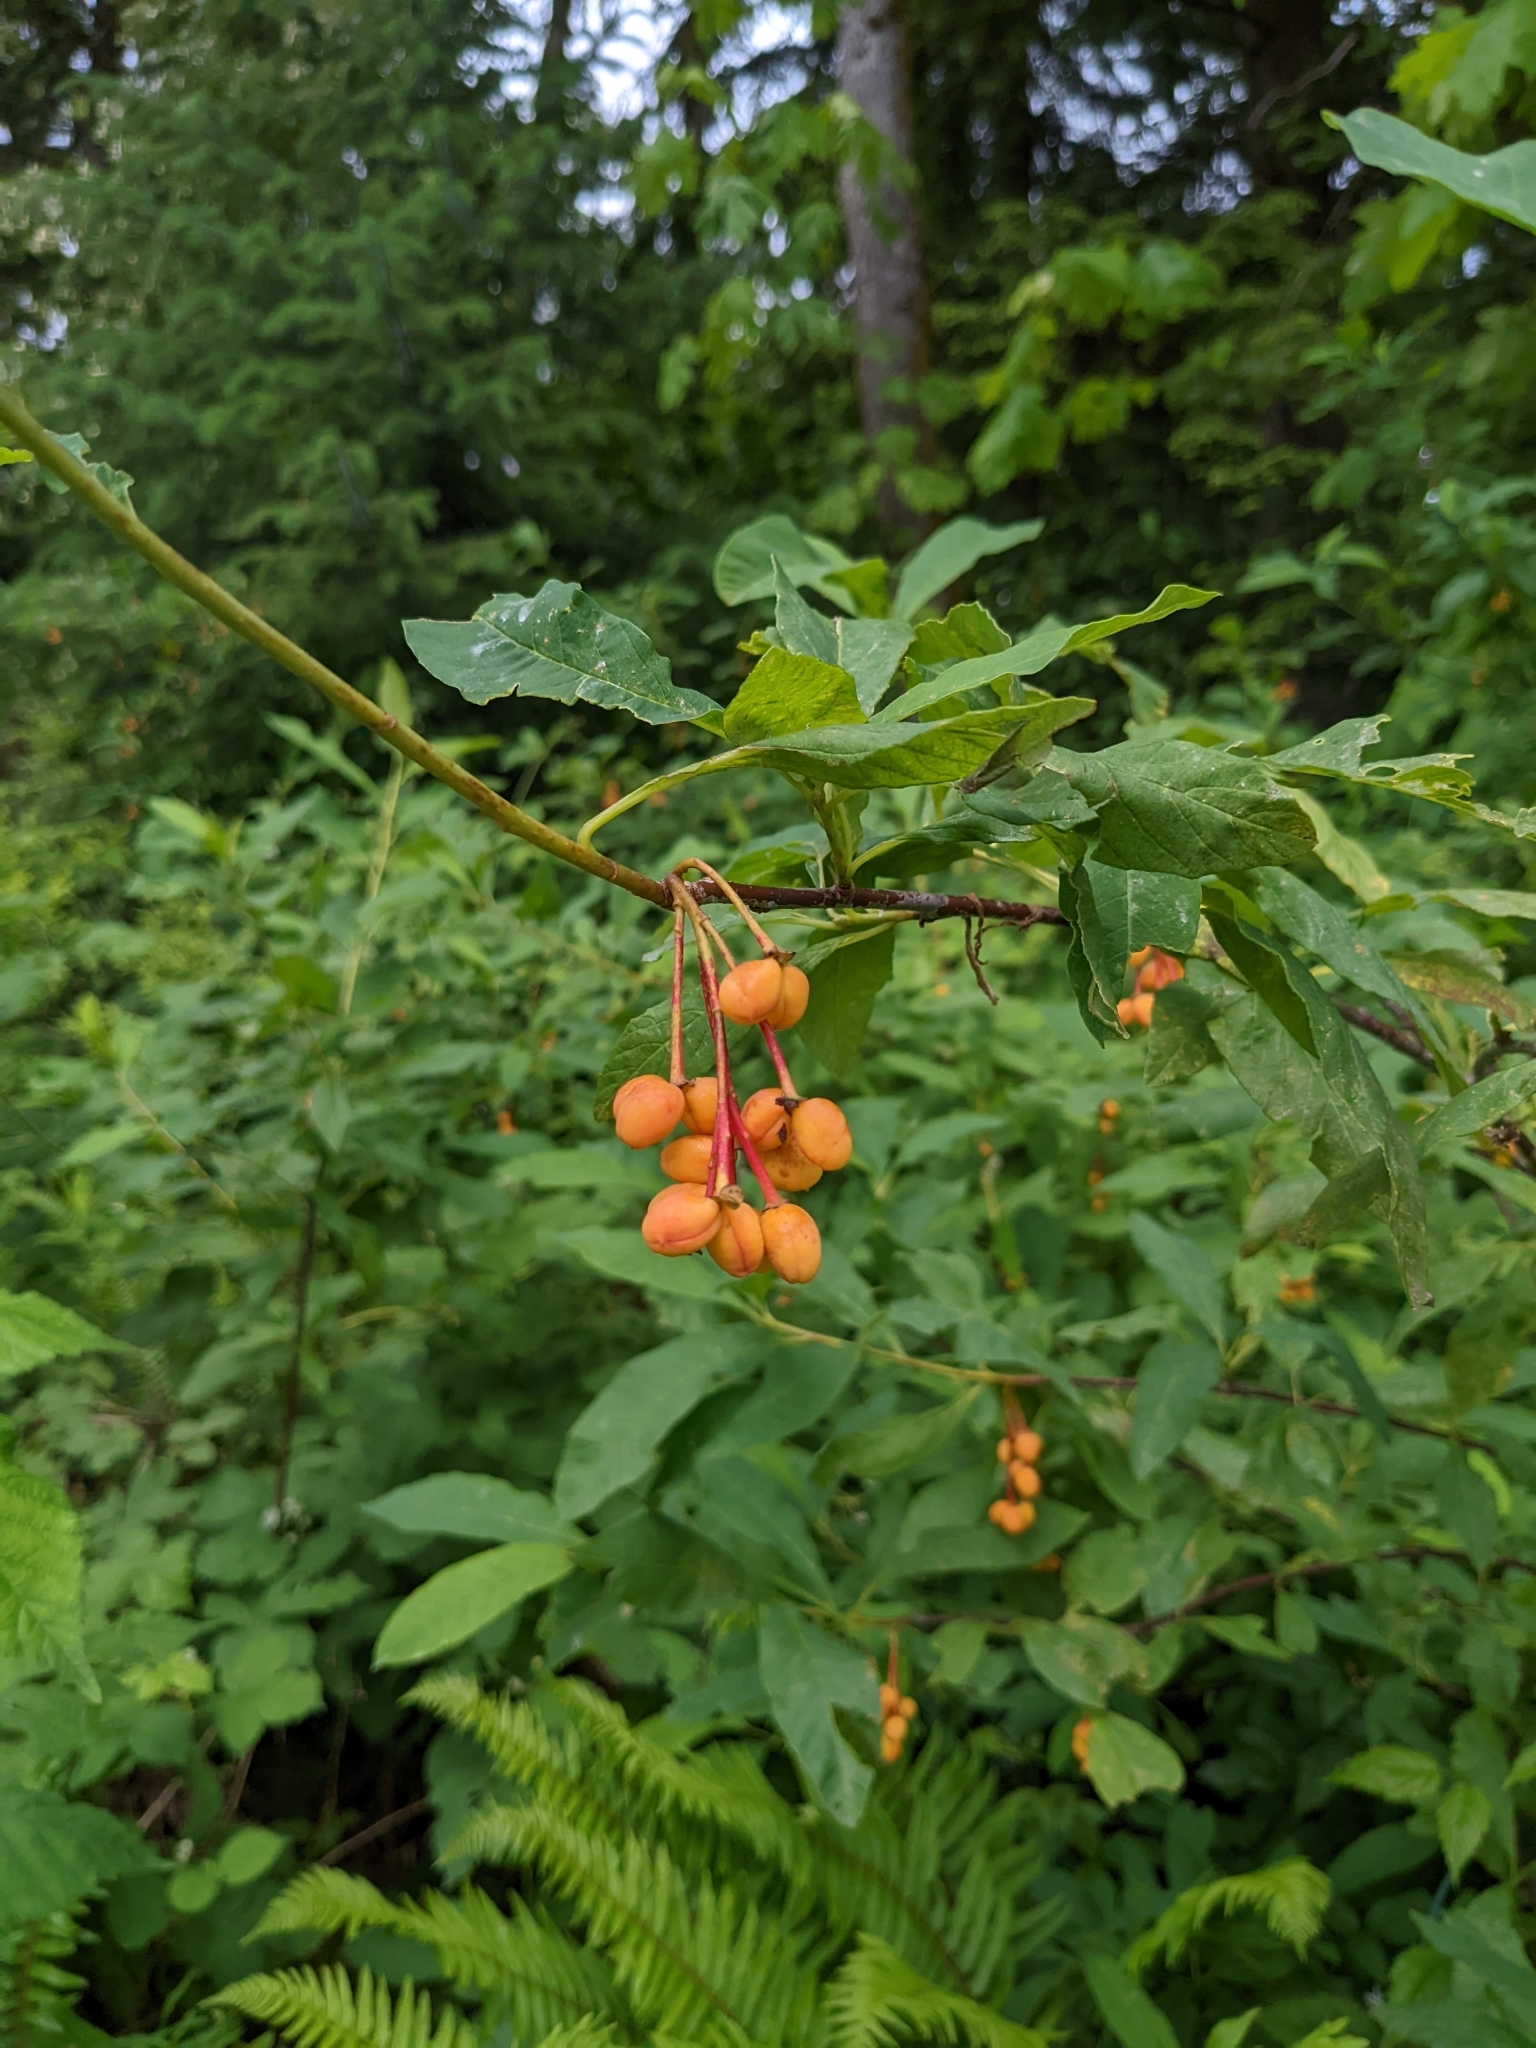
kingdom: Plantae
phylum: Tracheophyta
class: Magnoliopsida
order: Rosales
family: Rosaceae
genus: Oemleria
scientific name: Oemleria cerasiformis
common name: Osoberry
